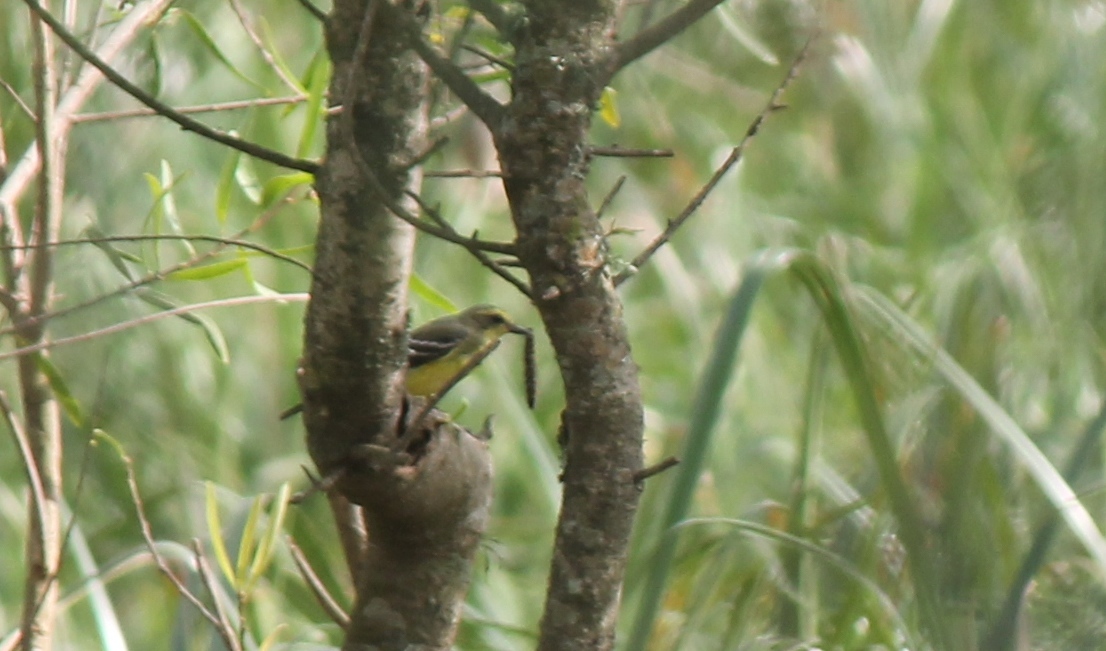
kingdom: Animalia
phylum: Chordata
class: Aves
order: Passeriformes
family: Tyrannidae
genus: Satrapa
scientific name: Satrapa icterophrys
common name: Yellow-browed tyrant
